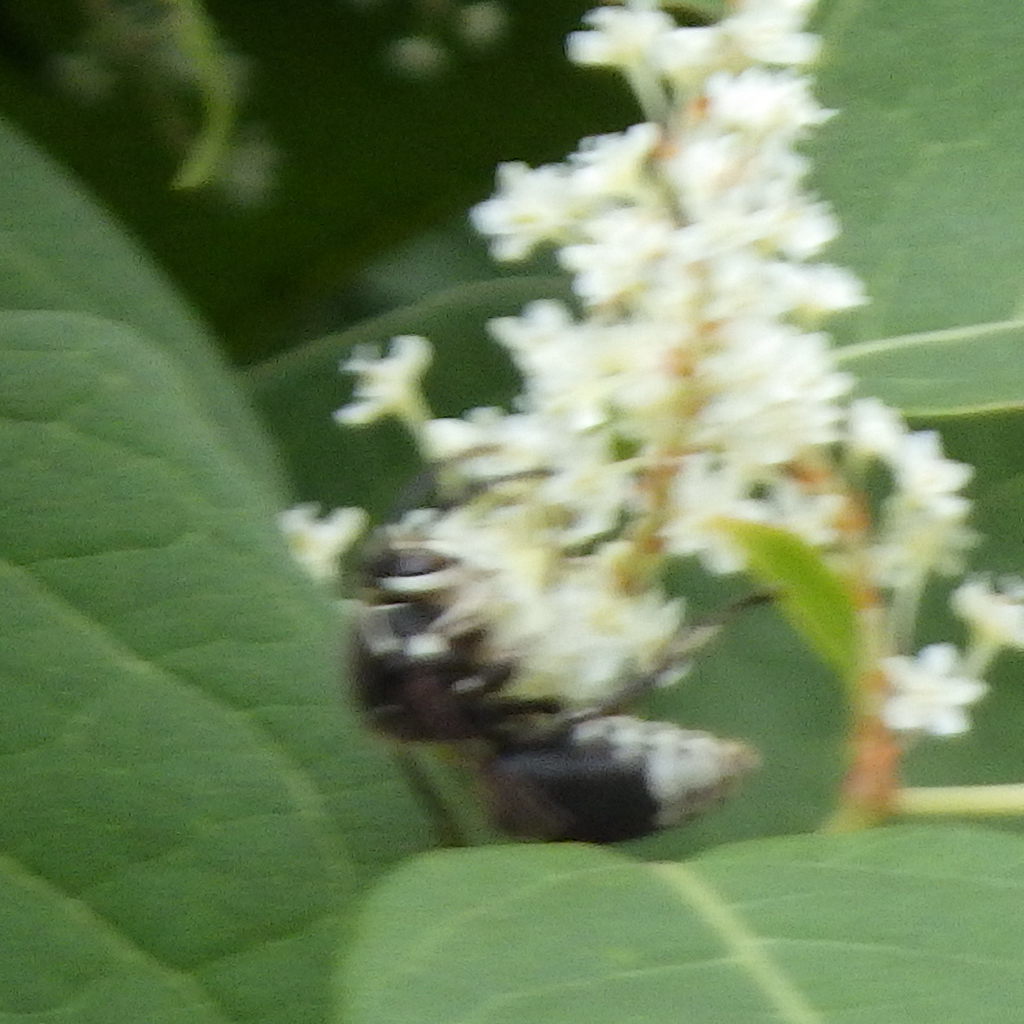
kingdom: Animalia
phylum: Arthropoda
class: Insecta
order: Hymenoptera
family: Vespidae
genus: Dolichovespula
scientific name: Dolichovespula maculata
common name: Bald-faced hornet
